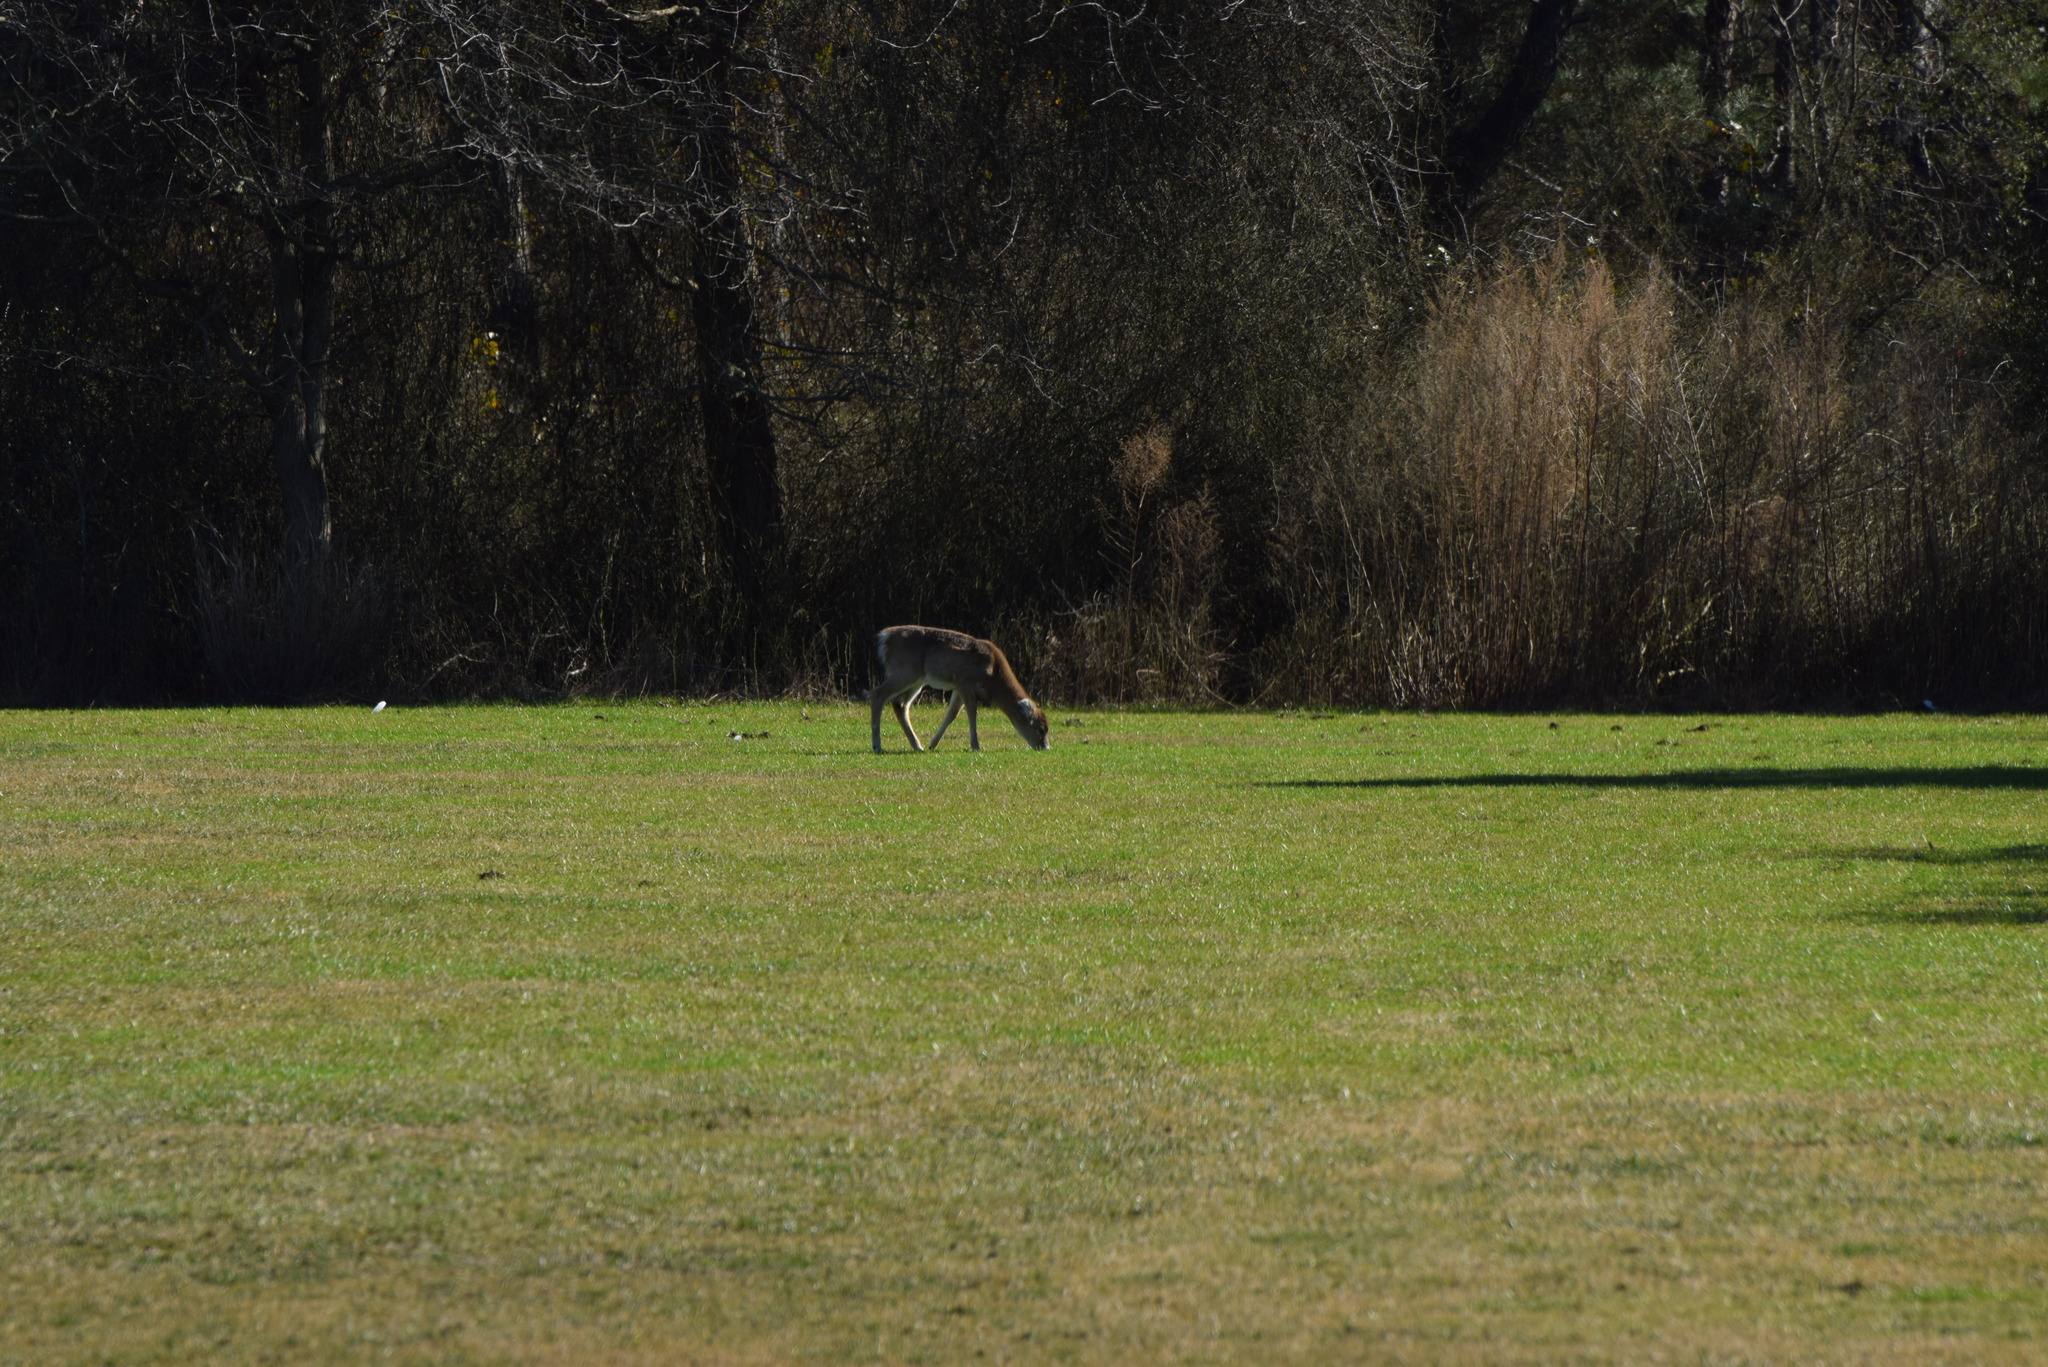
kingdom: Animalia
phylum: Chordata
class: Mammalia
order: Artiodactyla
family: Cervidae
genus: Odocoileus
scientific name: Odocoileus virginianus
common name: White-tailed deer
